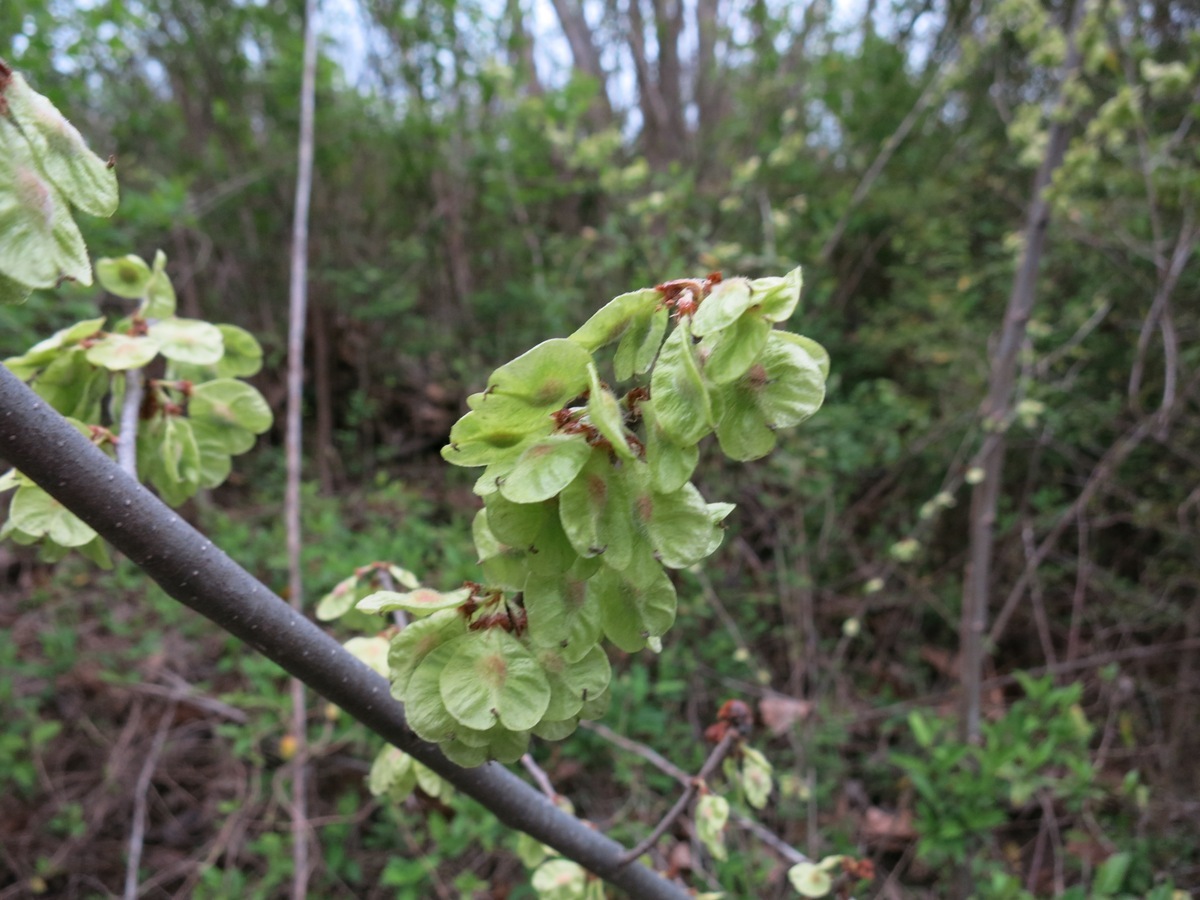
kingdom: Plantae
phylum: Tracheophyta
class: Magnoliopsida
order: Rosales
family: Ulmaceae
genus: Ulmus
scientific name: Ulmus rubra
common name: Slippery elm
